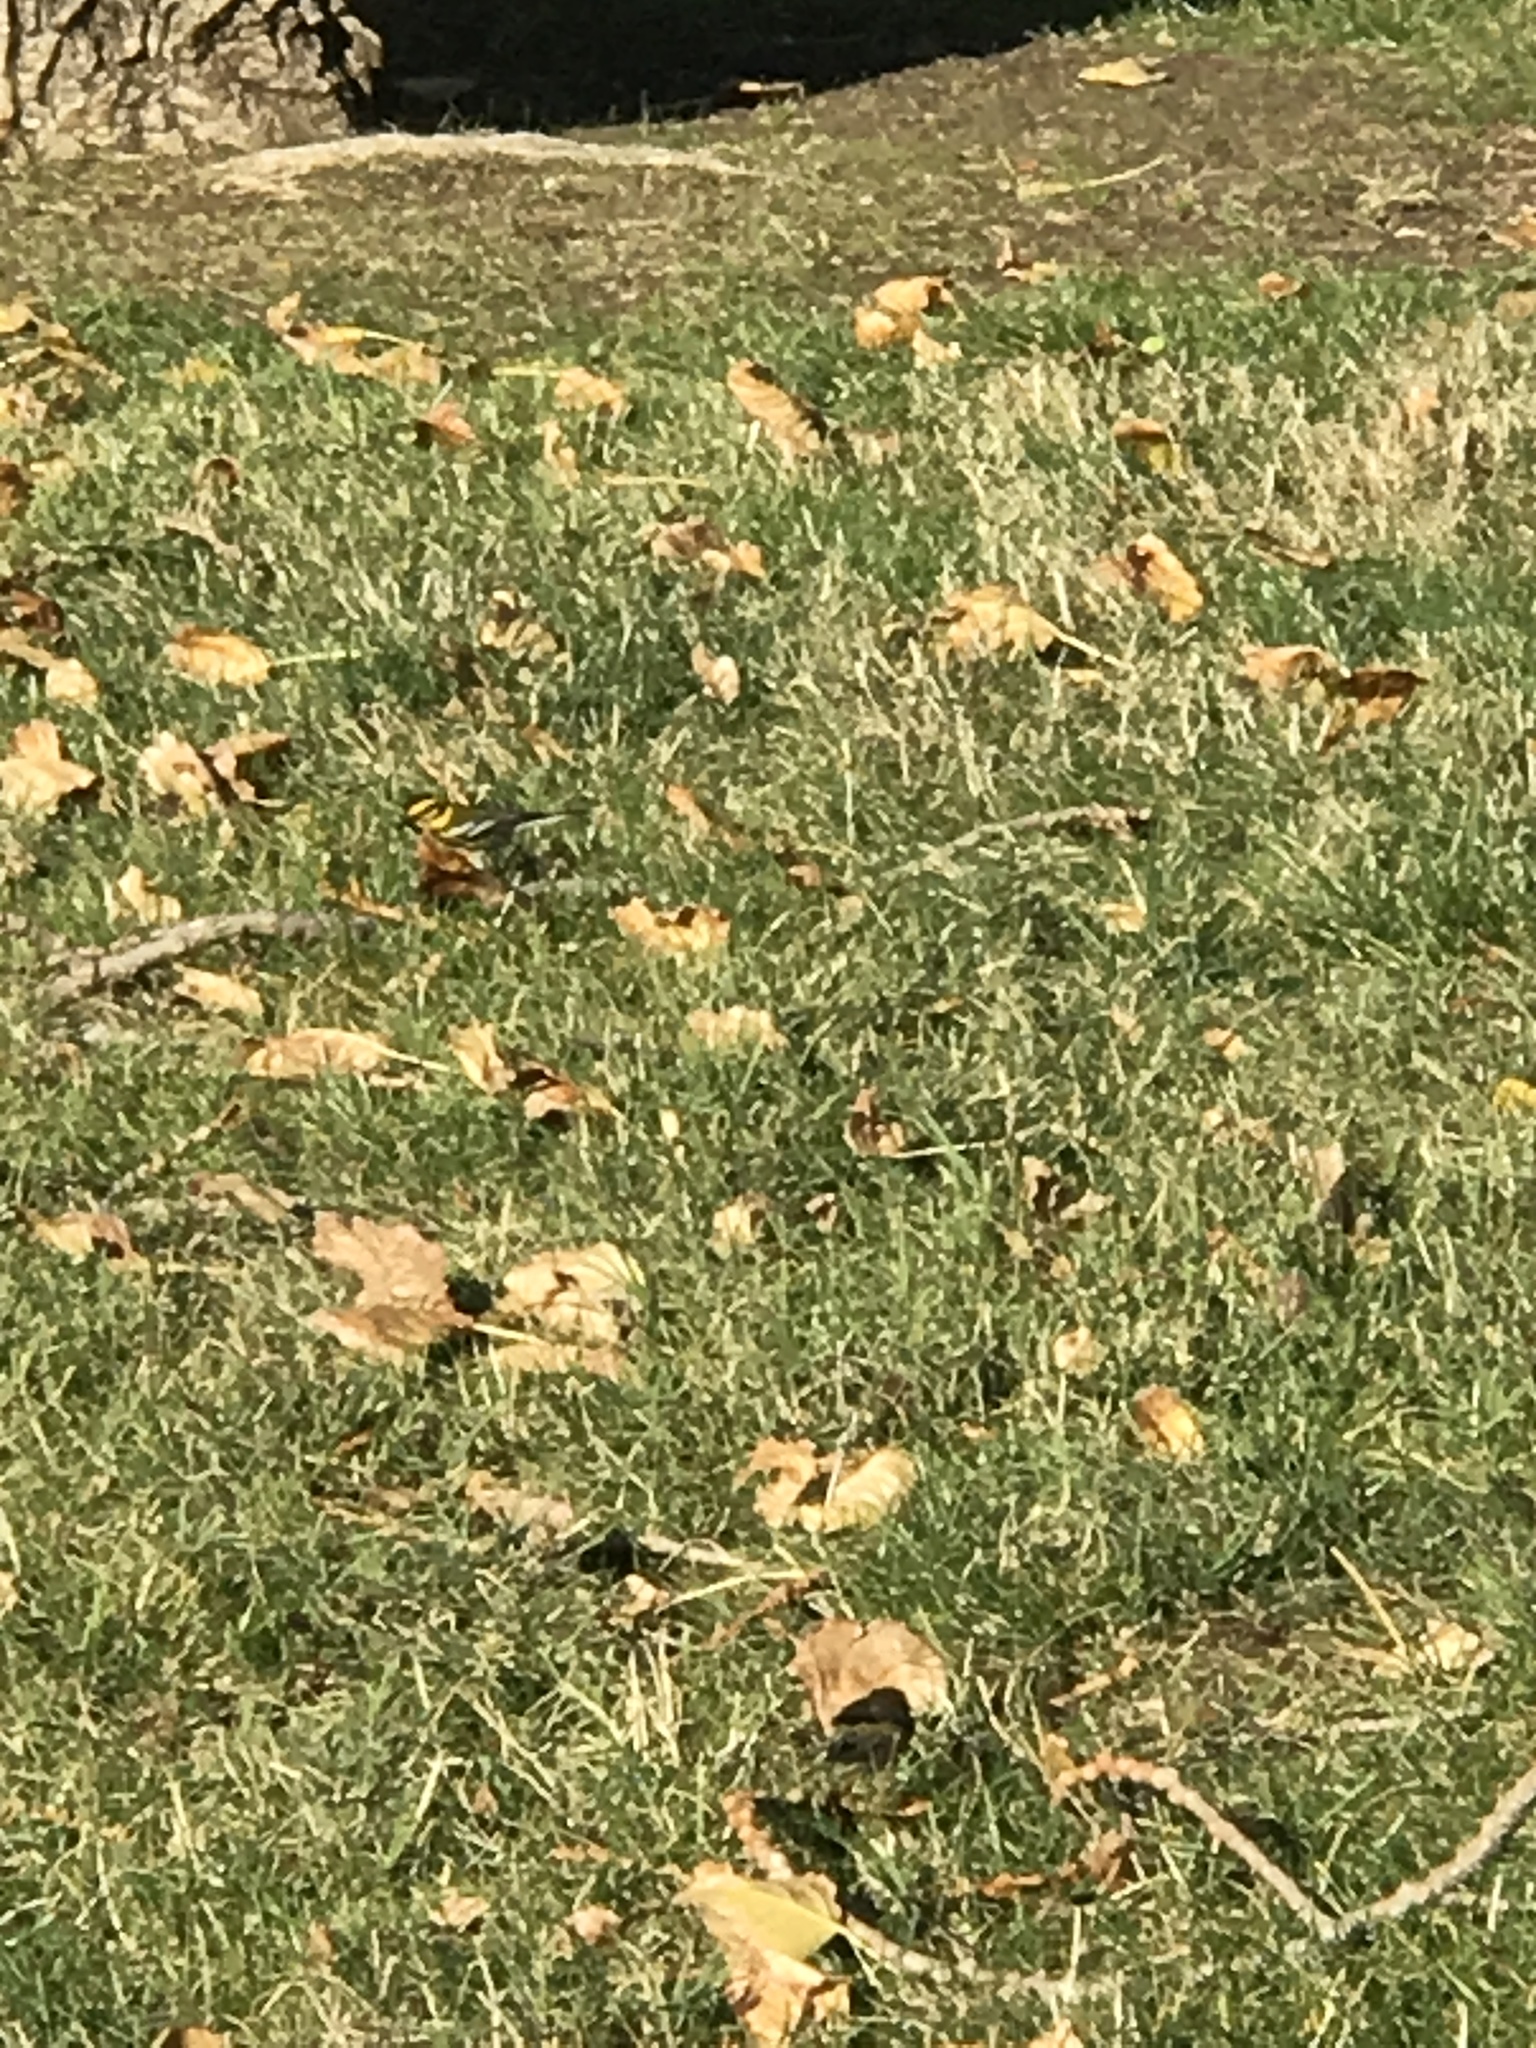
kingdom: Animalia
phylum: Chordata
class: Aves
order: Passeriformes
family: Parulidae
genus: Setophaga
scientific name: Setophaga townsendi
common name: Townsend's warbler
